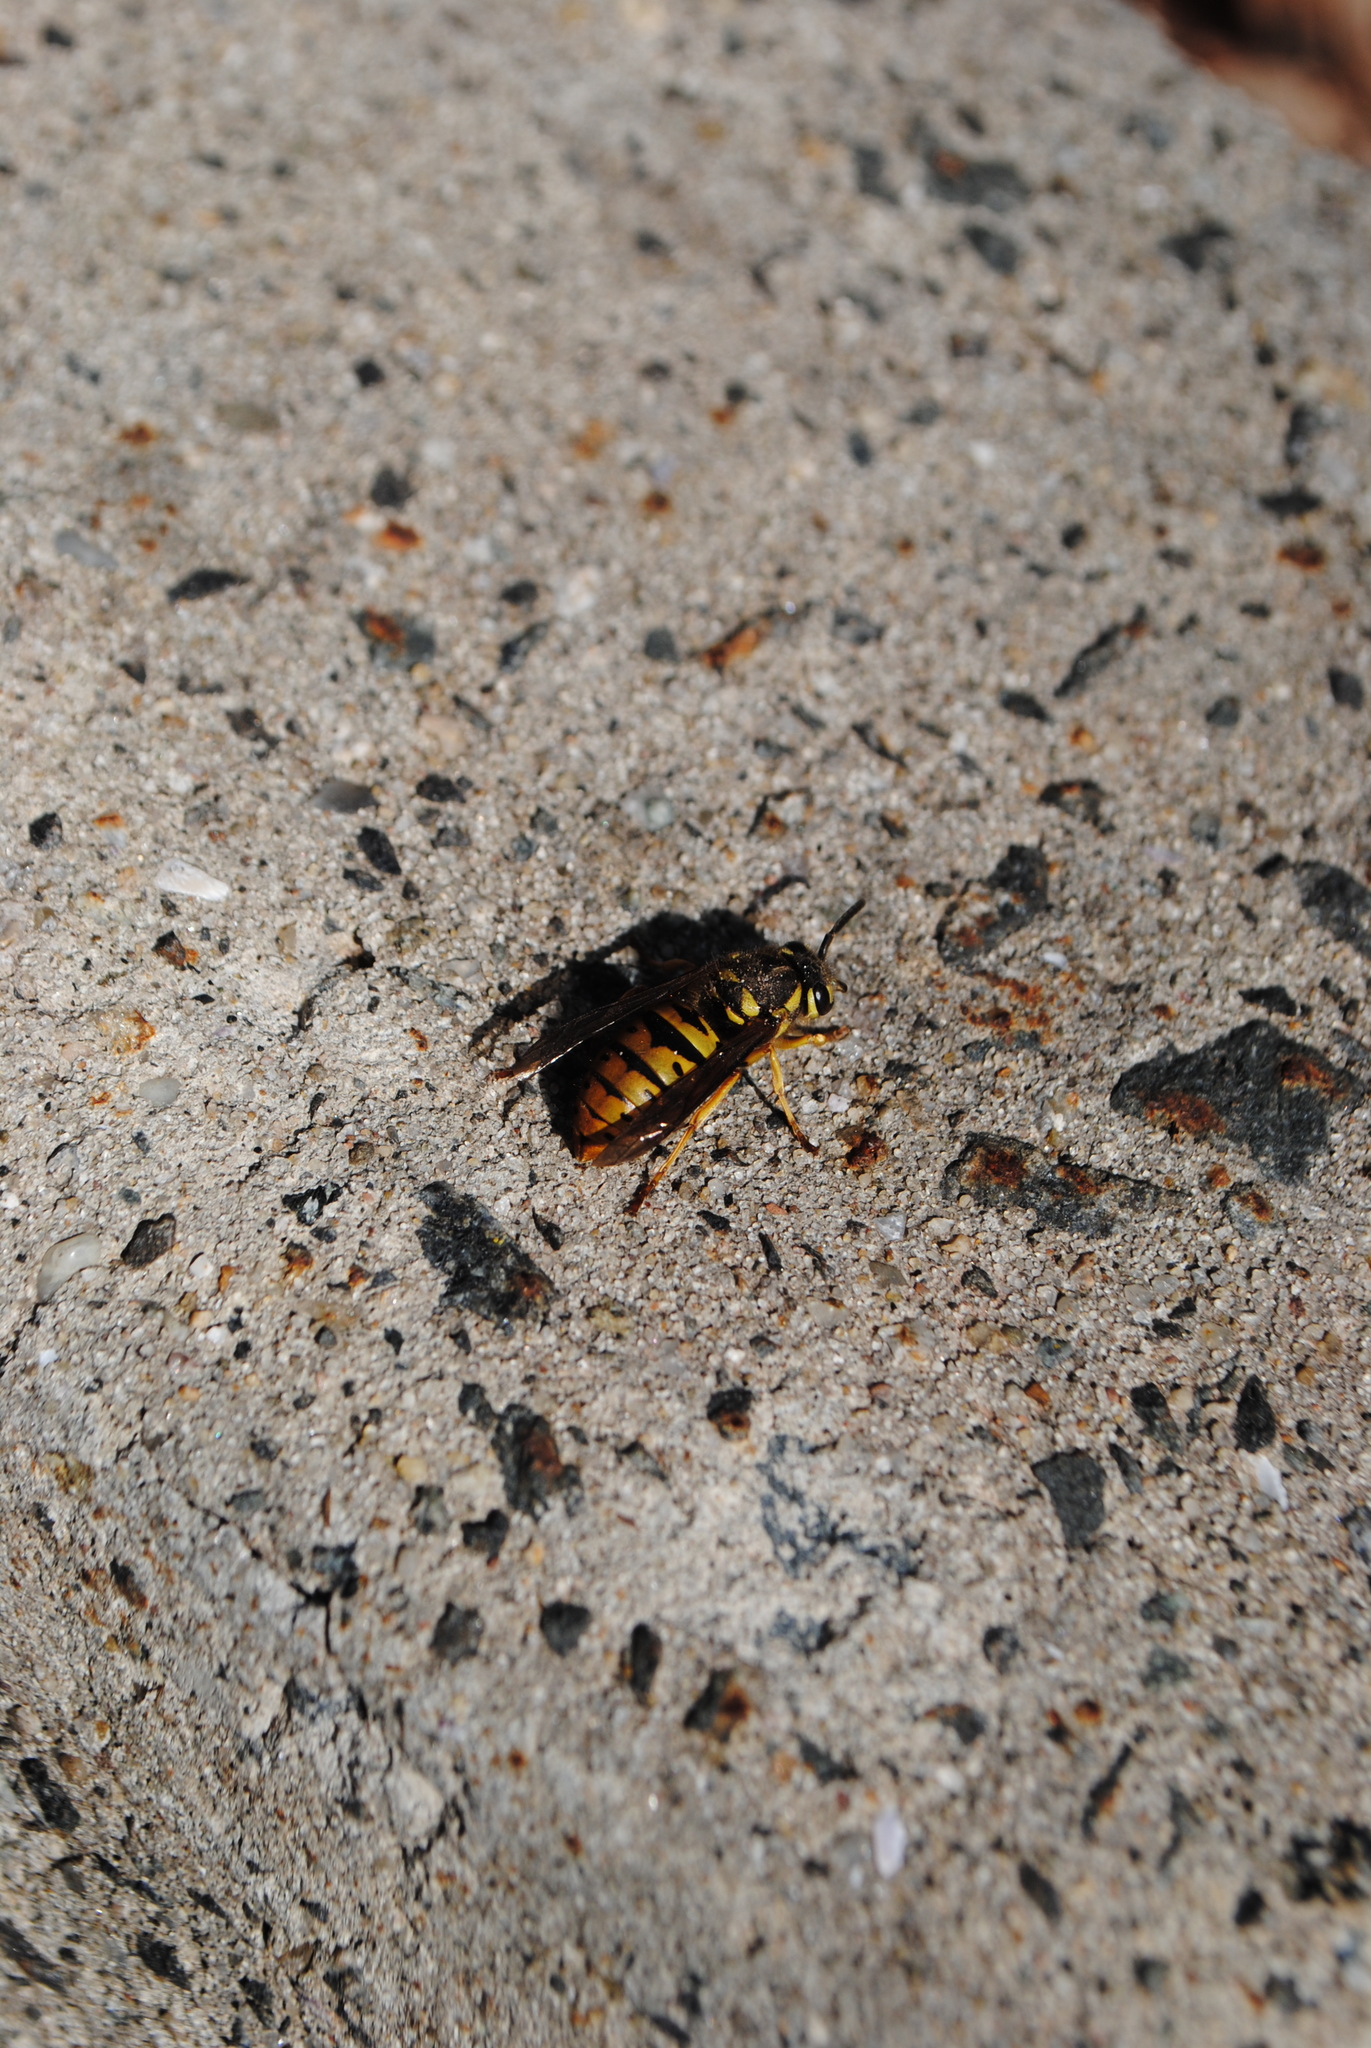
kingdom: Animalia
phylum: Arthropoda
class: Insecta
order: Hymenoptera
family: Vespidae
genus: Vespula
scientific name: Vespula maculifrons
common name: Eastern yellowjacket
